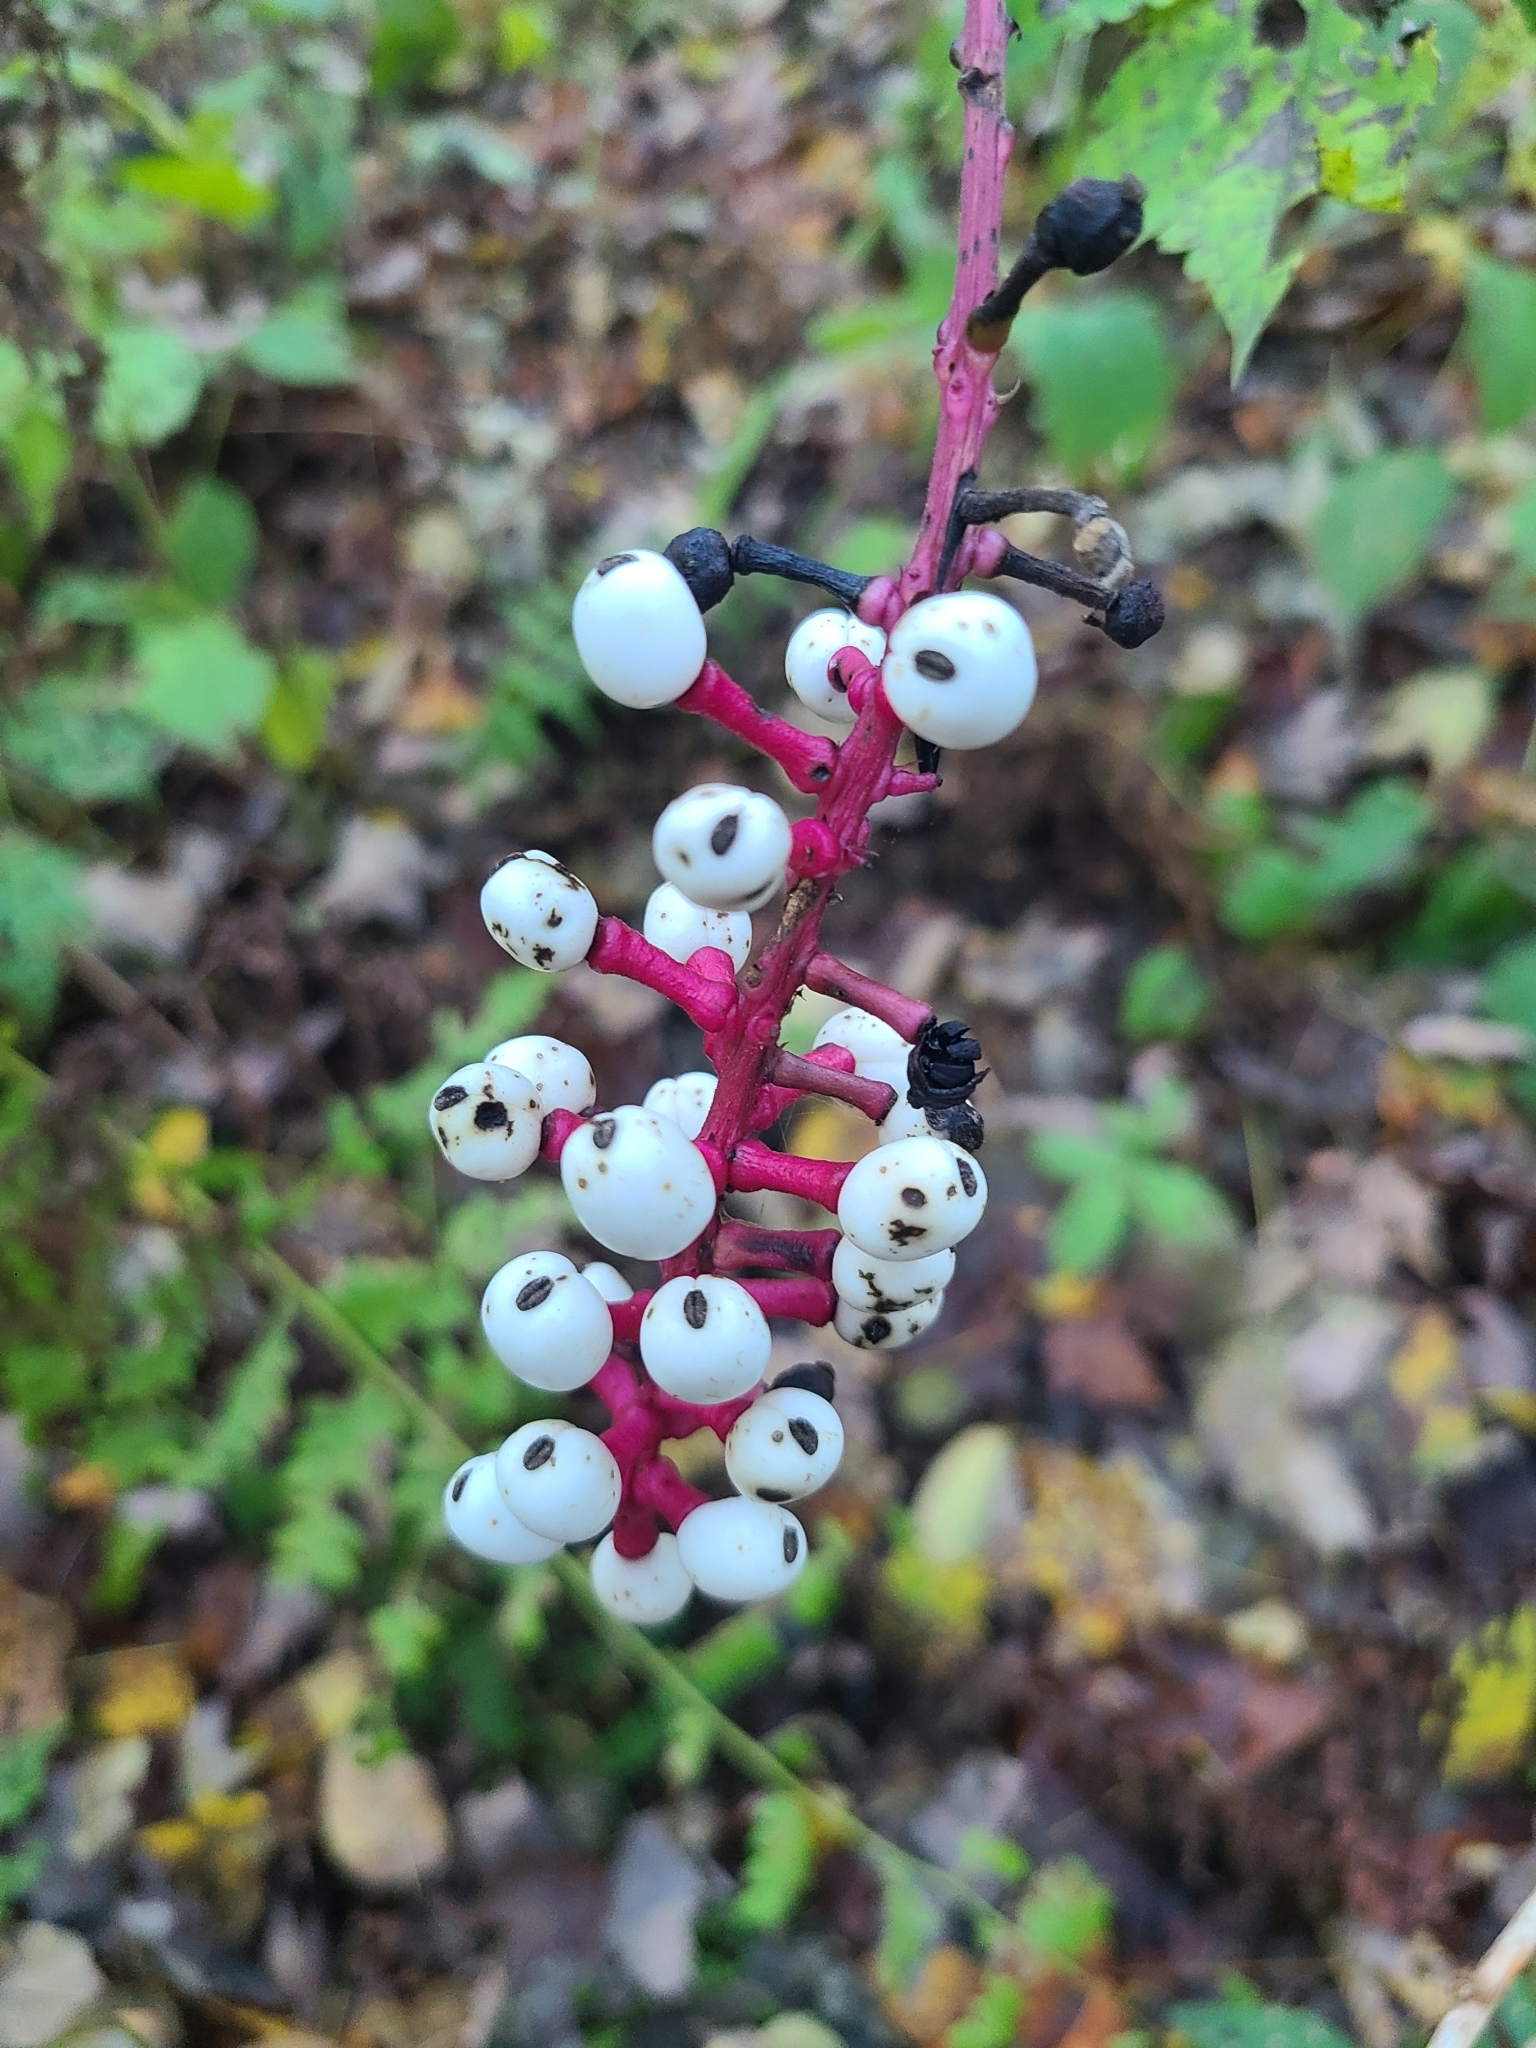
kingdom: Plantae
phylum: Tracheophyta
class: Magnoliopsida
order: Ranunculales
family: Ranunculaceae
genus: Actaea
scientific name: Actaea pachypoda
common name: Doll's-eyes
